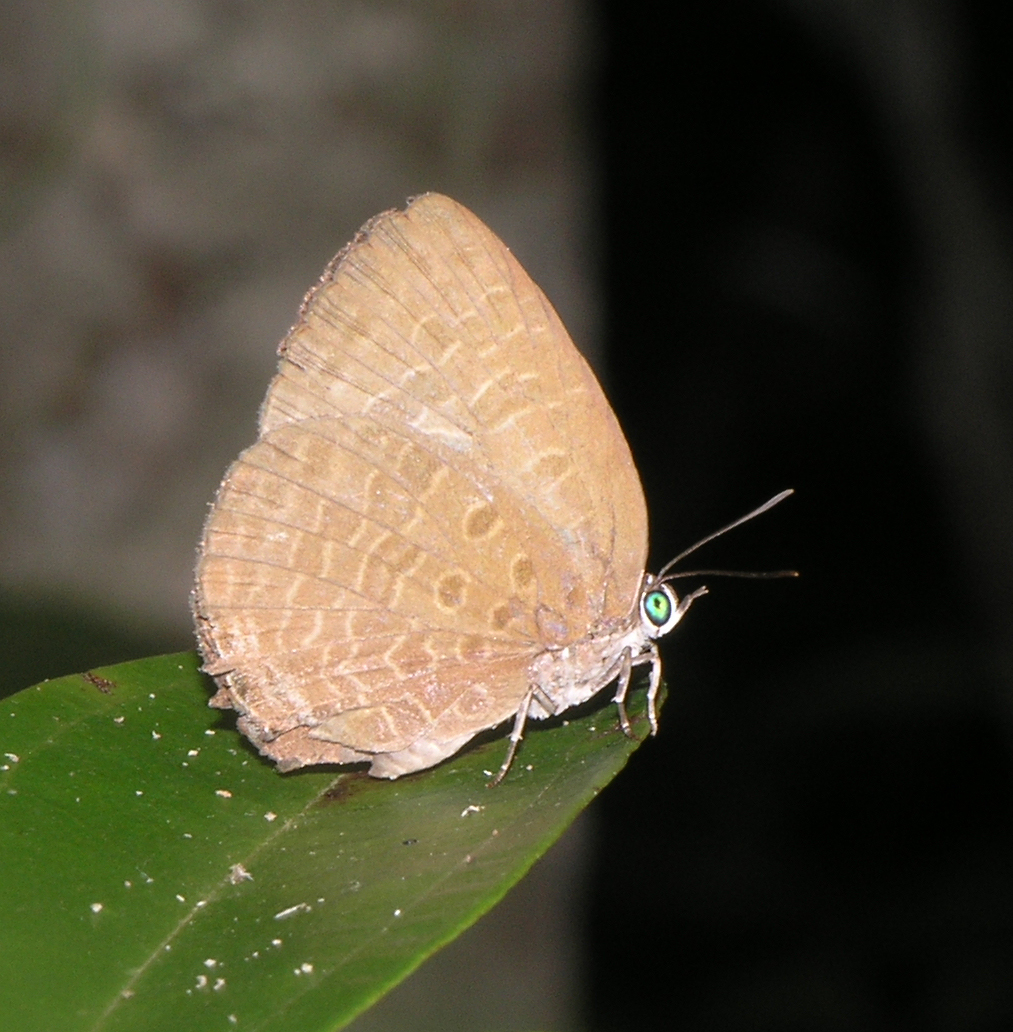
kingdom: Animalia
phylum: Arthropoda
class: Insecta
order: Lepidoptera
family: Lycaenidae
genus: Arhopala
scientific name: Arhopala elopura
